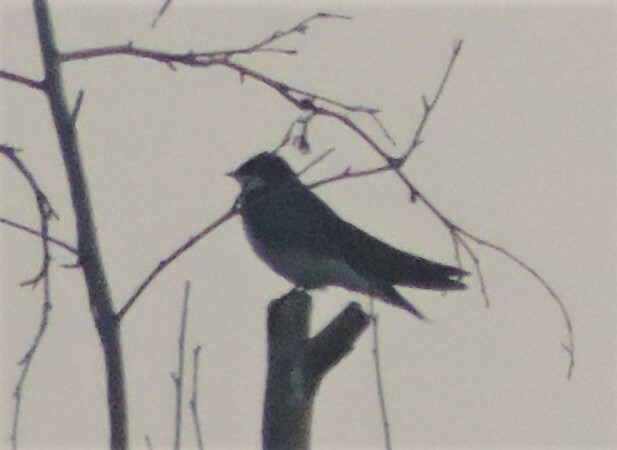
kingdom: Animalia
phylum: Chordata
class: Aves
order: Passeriformes
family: Hirundinidae
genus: Tachycineta
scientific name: Tachycineta bicolor
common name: Tree swallow
